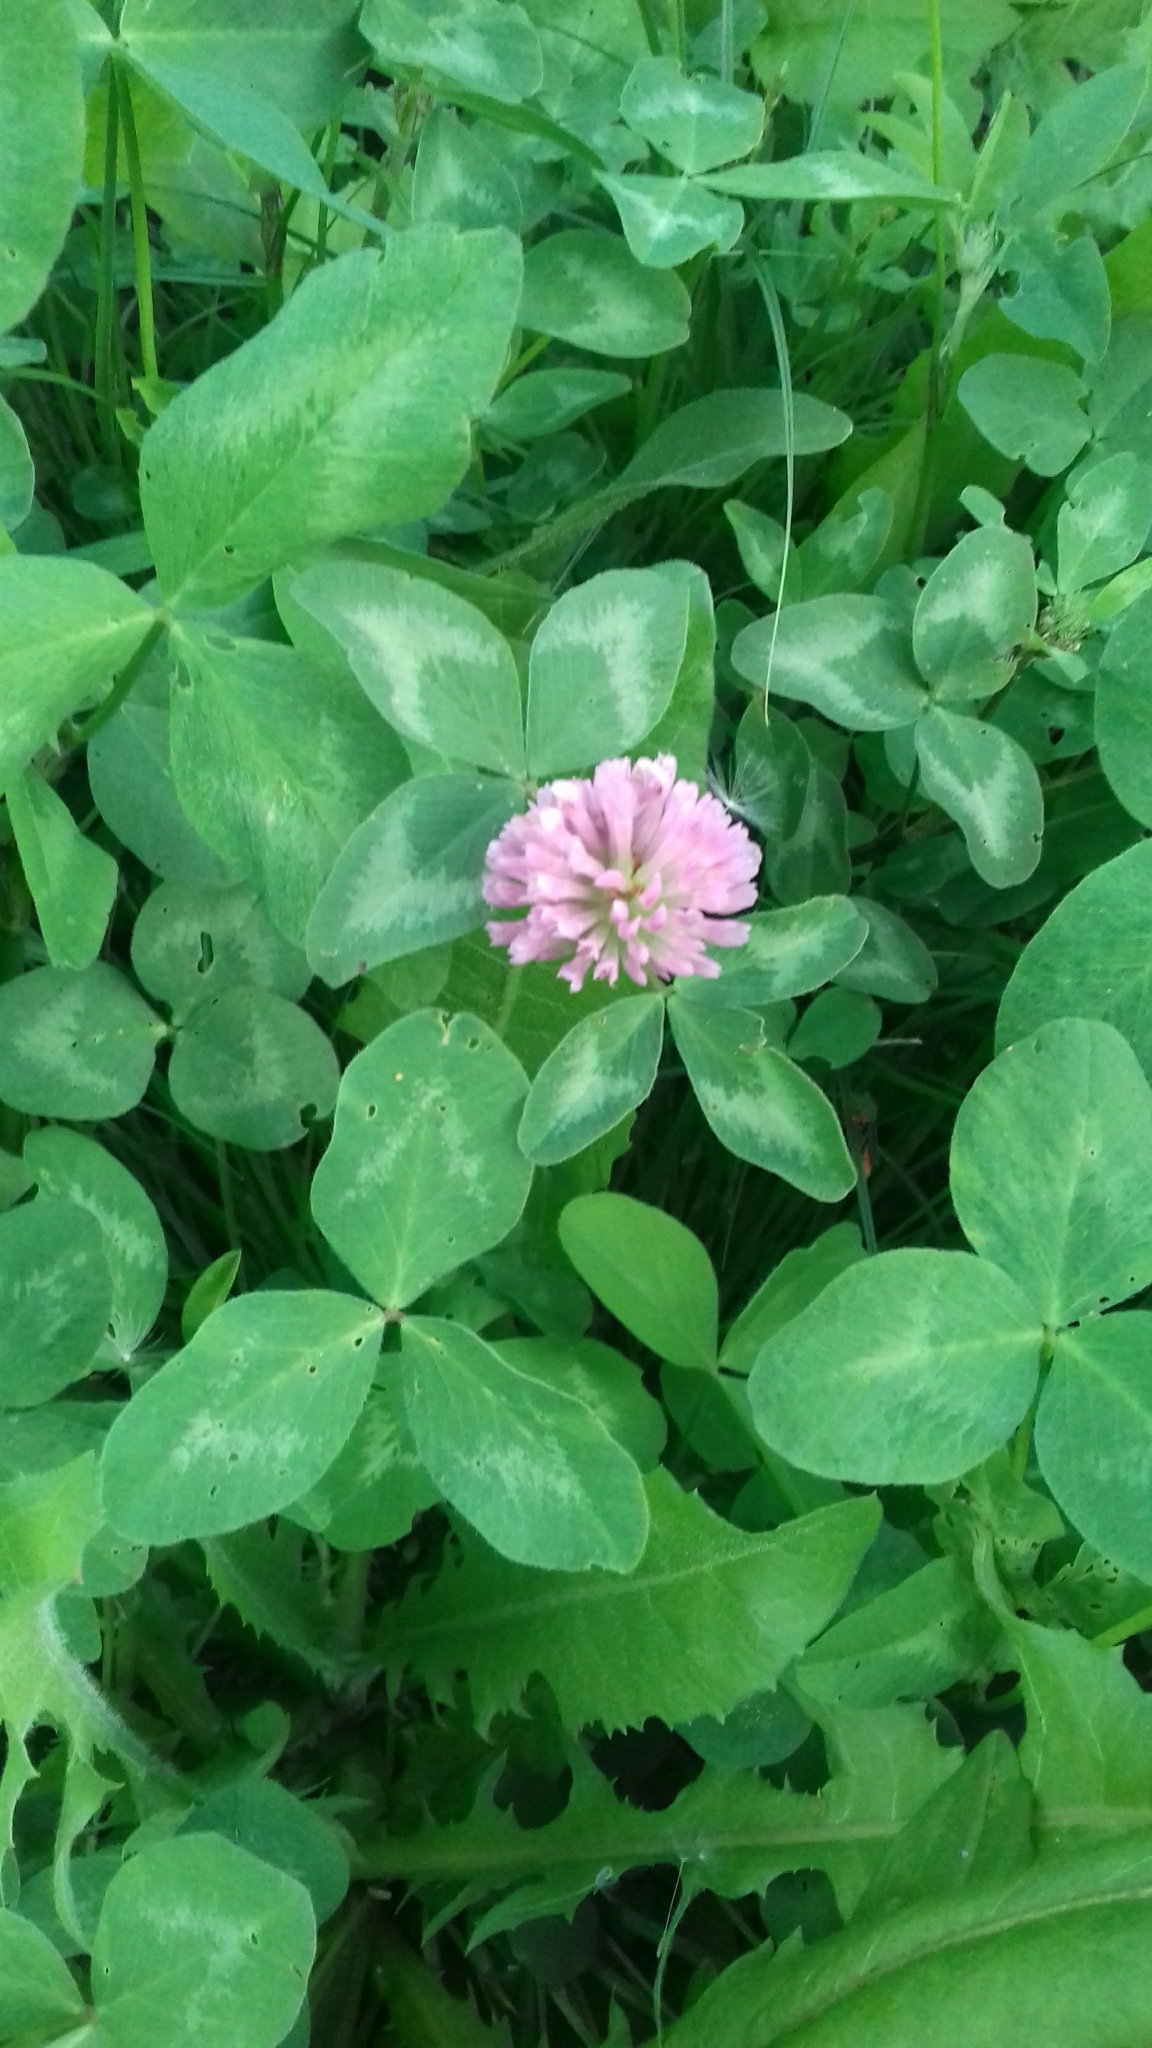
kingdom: Plantae
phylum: Tracheophyta
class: Magnoliopsida
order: Fabales
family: Fabaceae
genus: Trifolium
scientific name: Trifolium pratense
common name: Red clover
